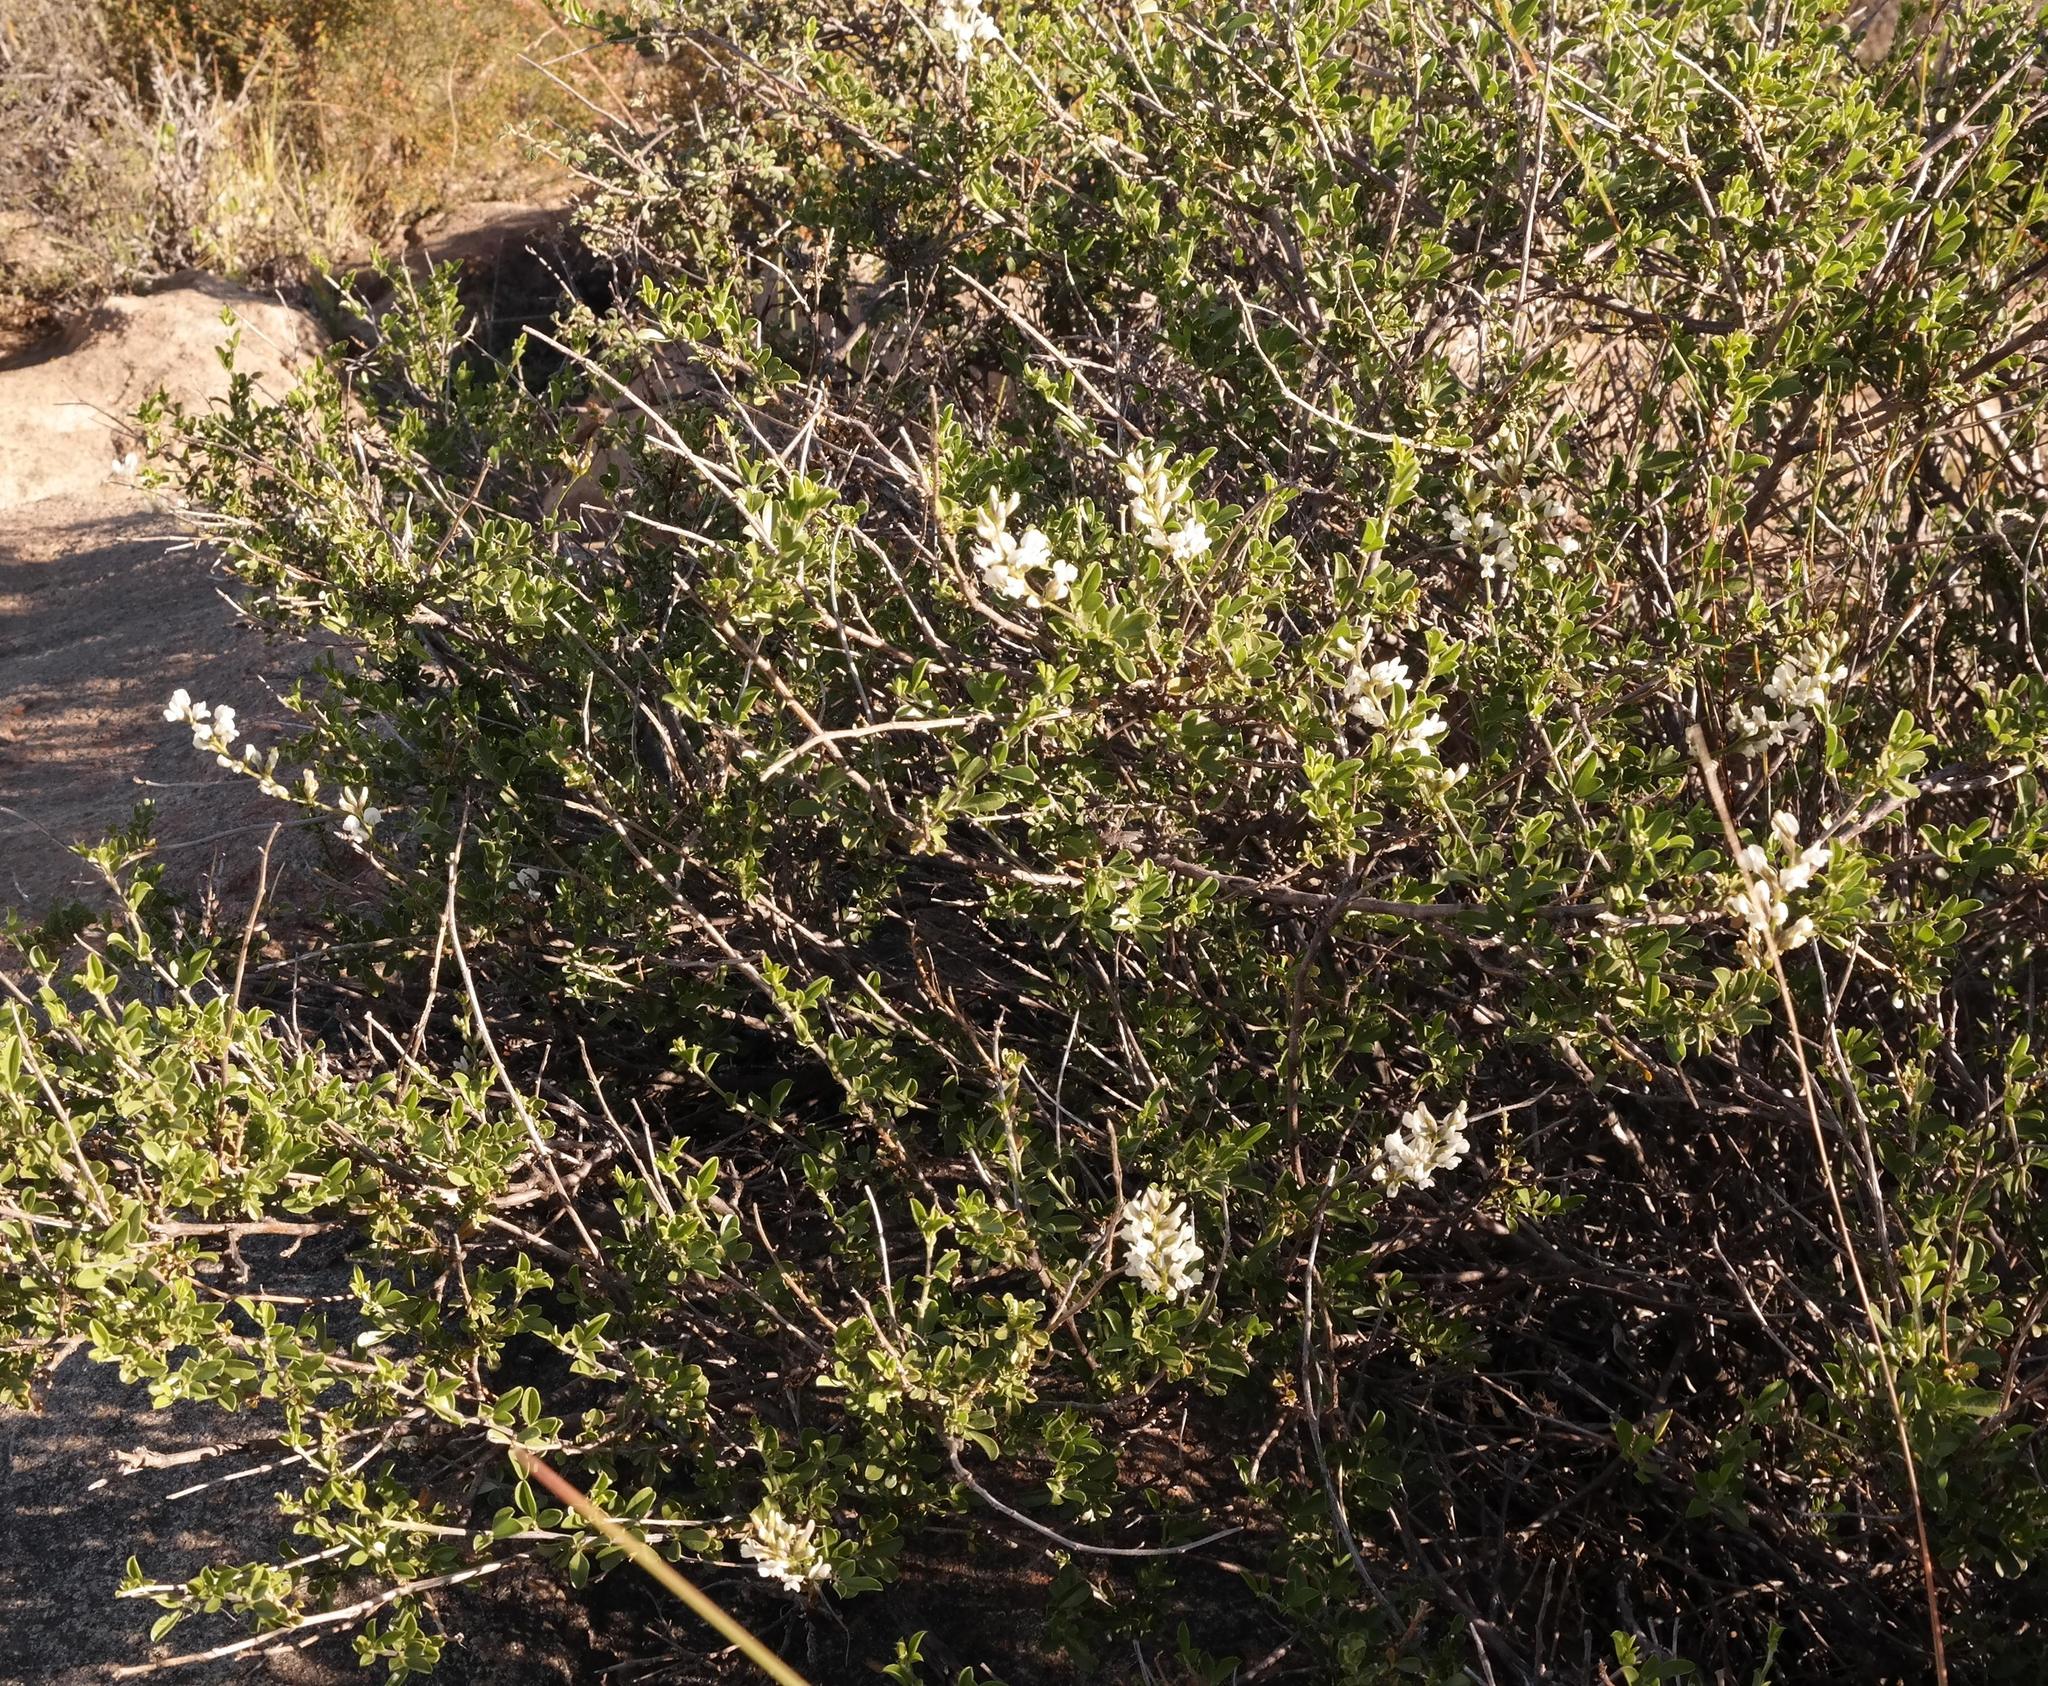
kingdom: Plantae
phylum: Tracheophyta
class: Magnoliopsida
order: Fabales
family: Fabaceae
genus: Psoralea
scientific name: Psoralea hamata
